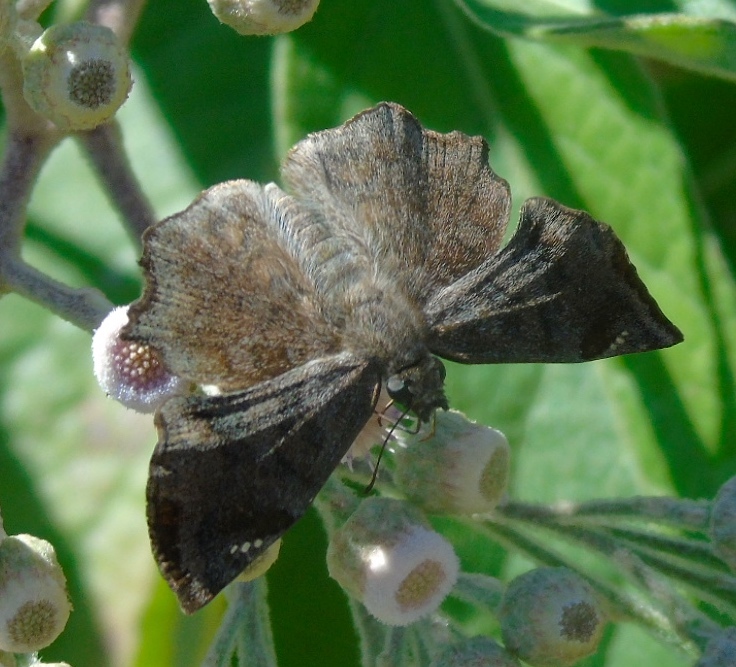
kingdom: Animalia
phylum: Arthropoda
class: Insecta
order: Lepidoptera
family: Hesperiidae
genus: Antigonus
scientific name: Antigonus erosus
